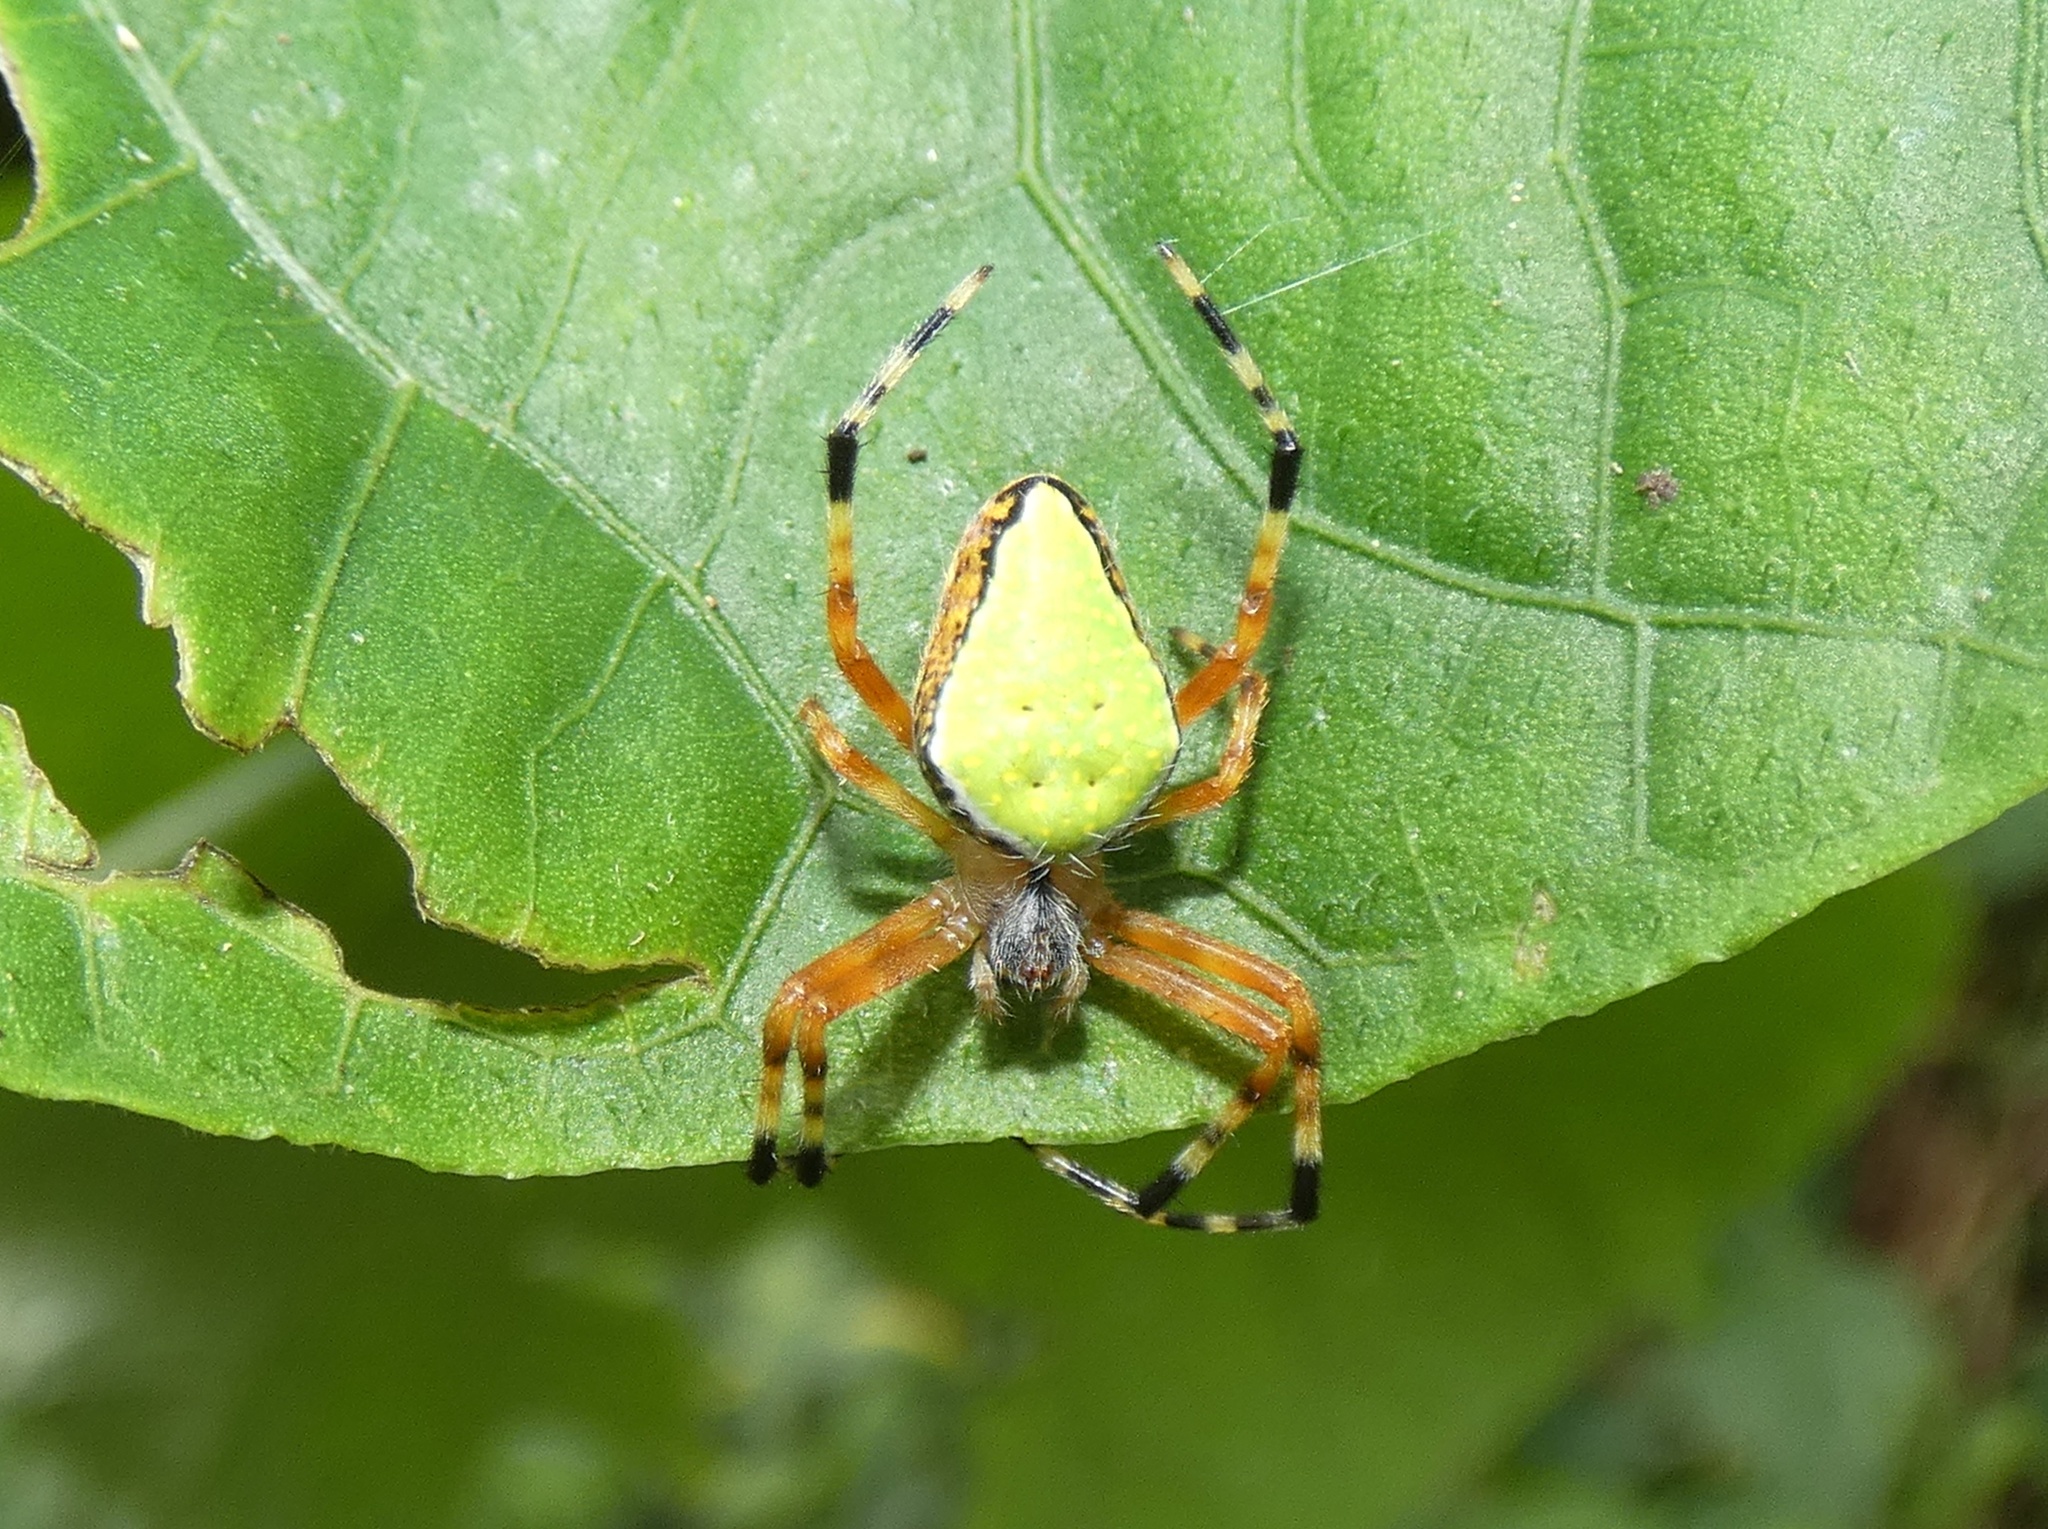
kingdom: Animalia
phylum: Arthropoda
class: Arachnida
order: Araneae
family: Araneidae
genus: Eriophora
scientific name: Eriophora nephiloides
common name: Orb weavers
